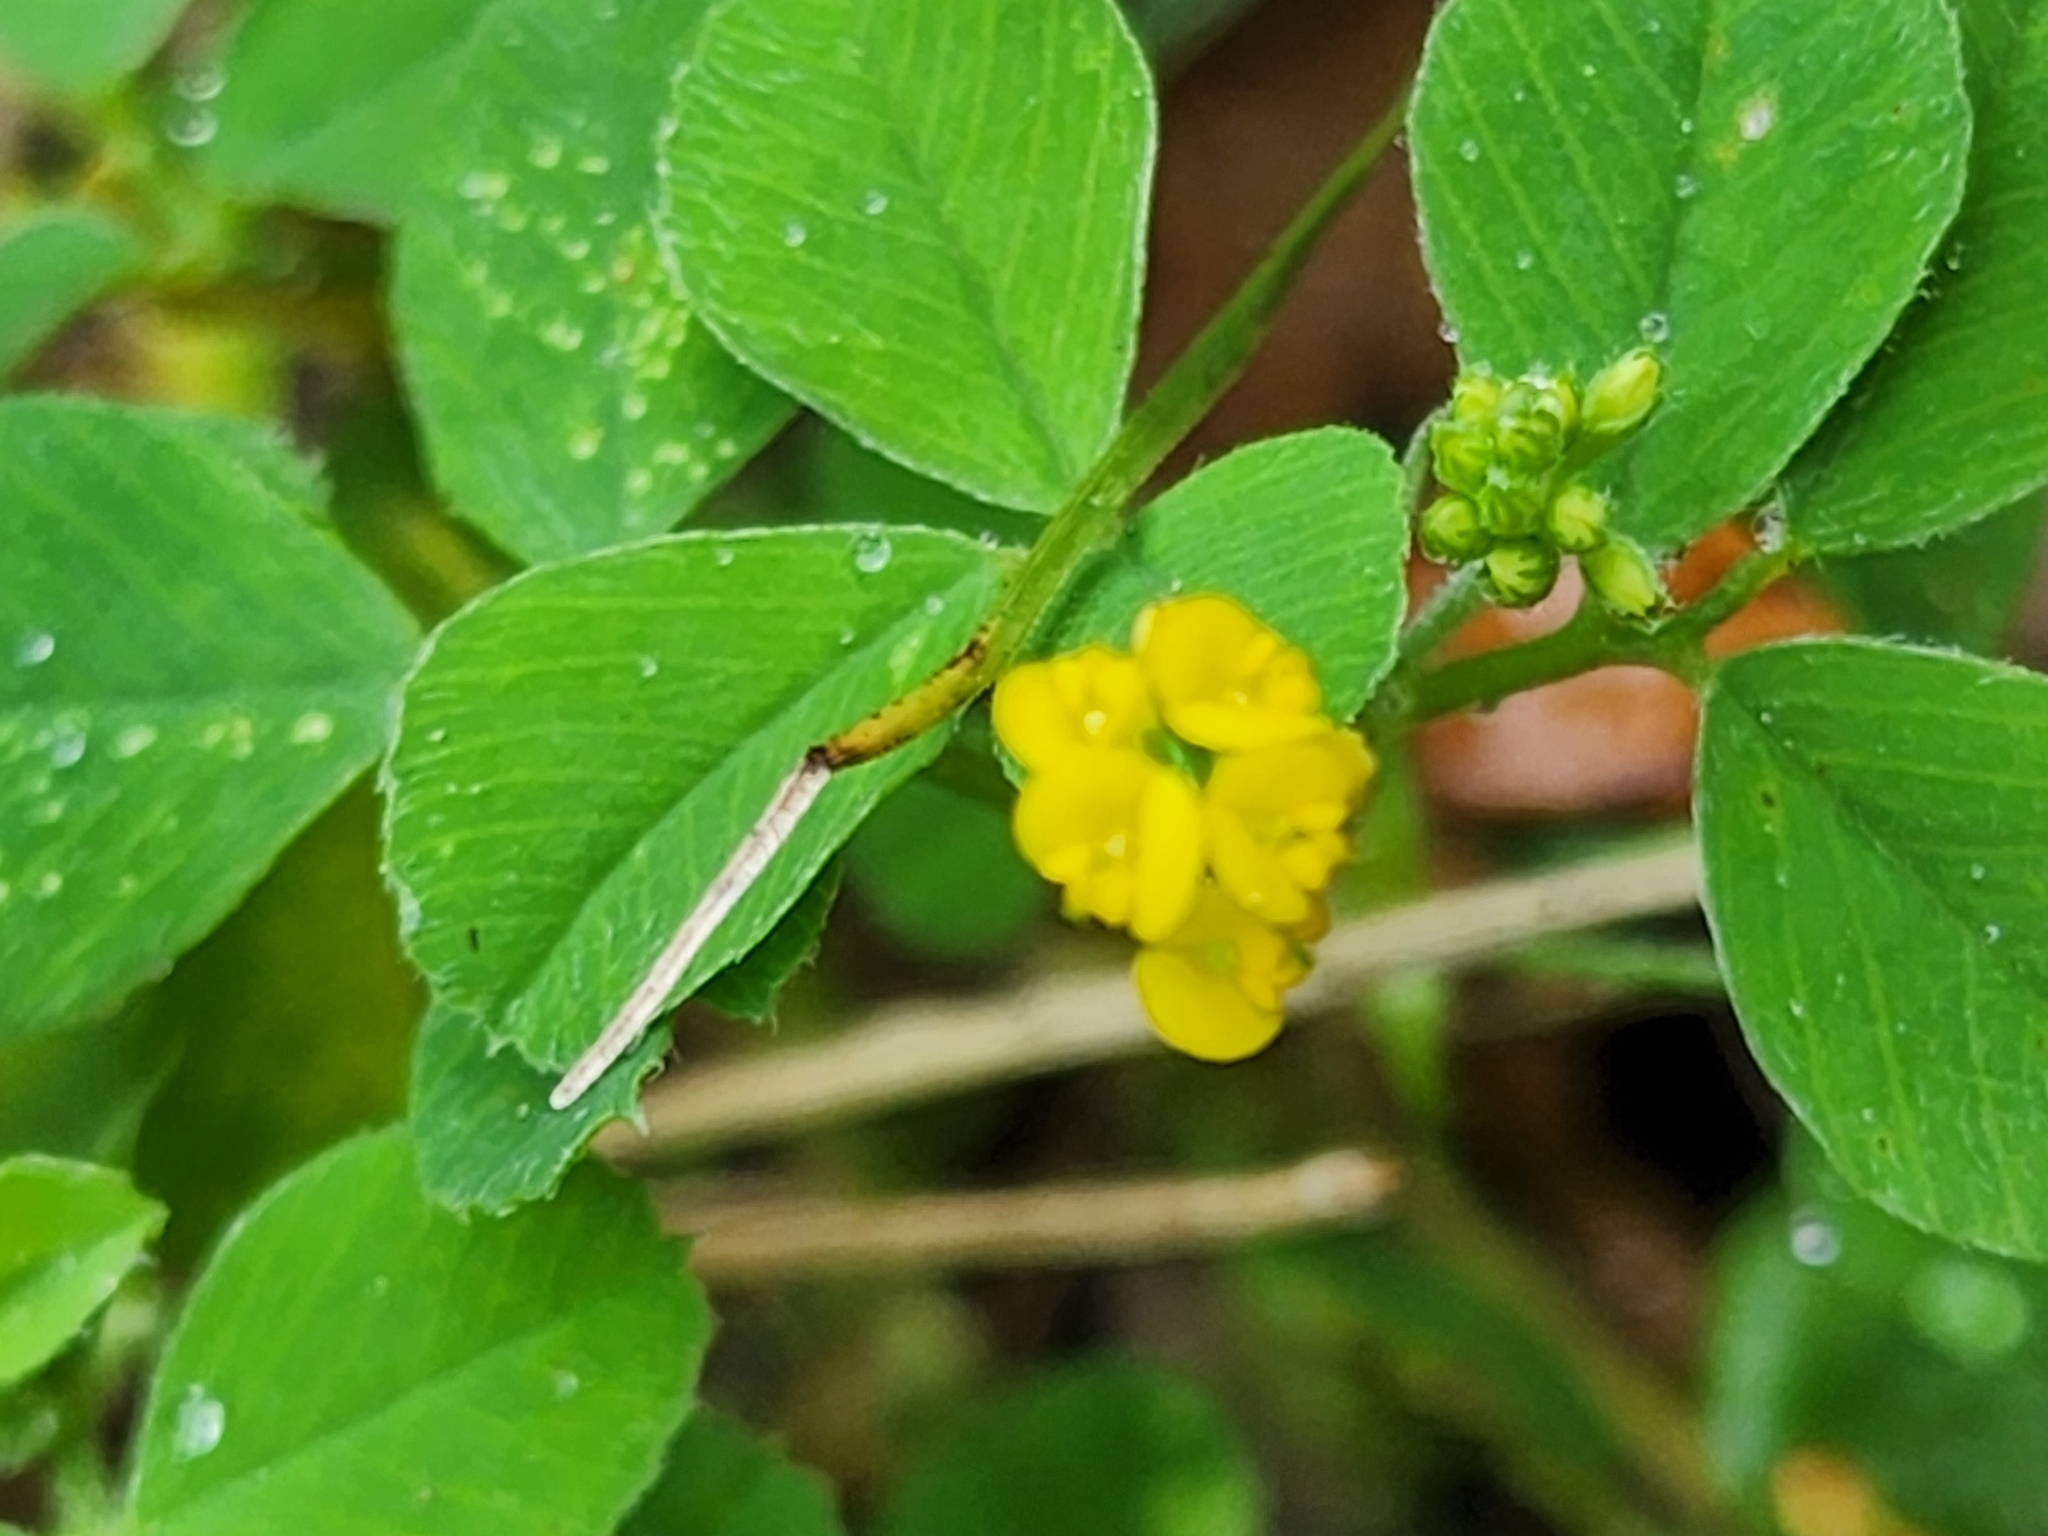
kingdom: Plantae
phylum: Tracheophyta
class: Magnoliopsida
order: Fabales
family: Fabaceae
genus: Medicago
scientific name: Medicago lupulina
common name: Black medick
